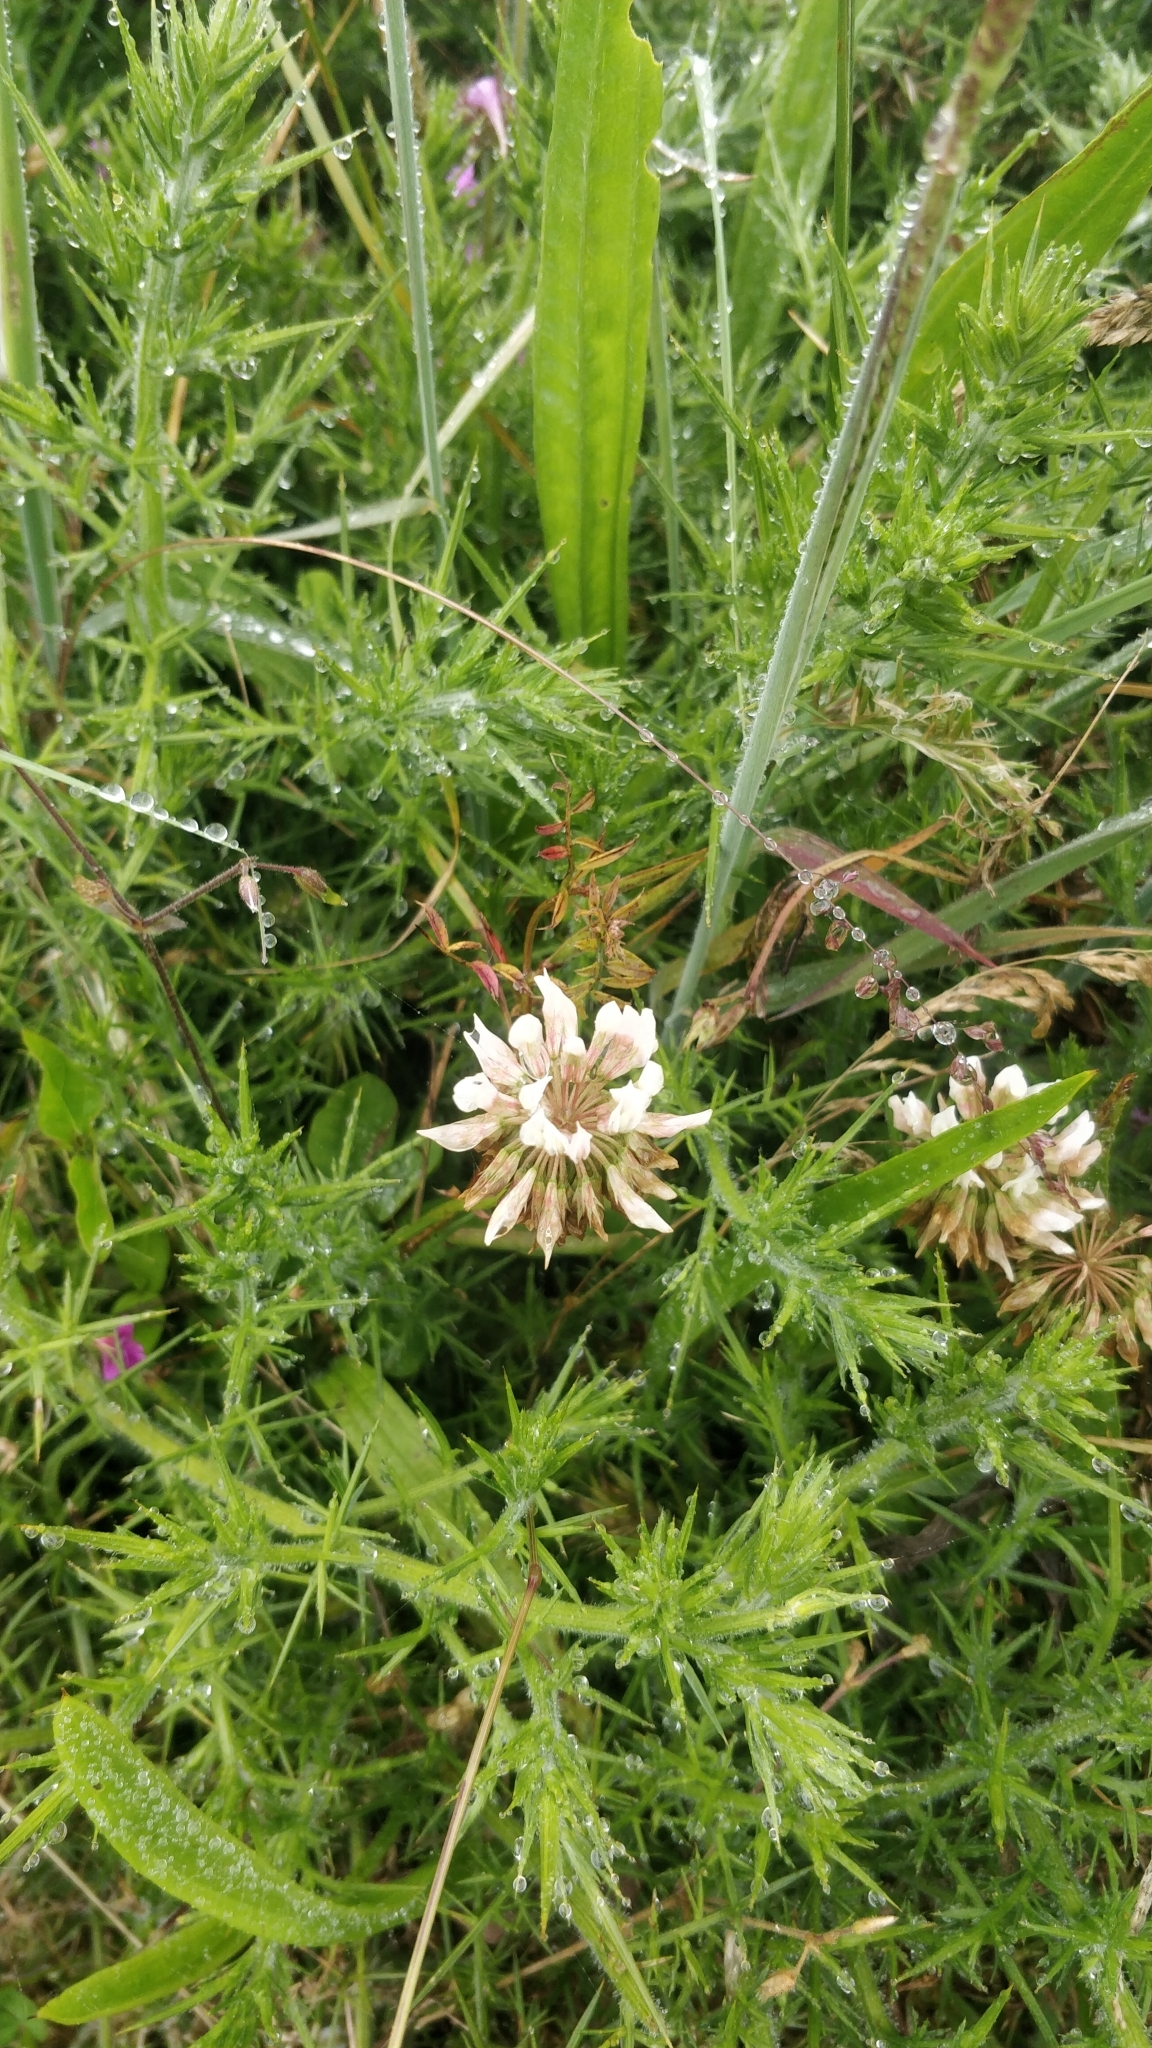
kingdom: Plantae
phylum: Tracheophyta
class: Magnoliopsida
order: Fabales
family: Fabaceae
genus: Trifolium
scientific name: Trifolium repens
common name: White clover
